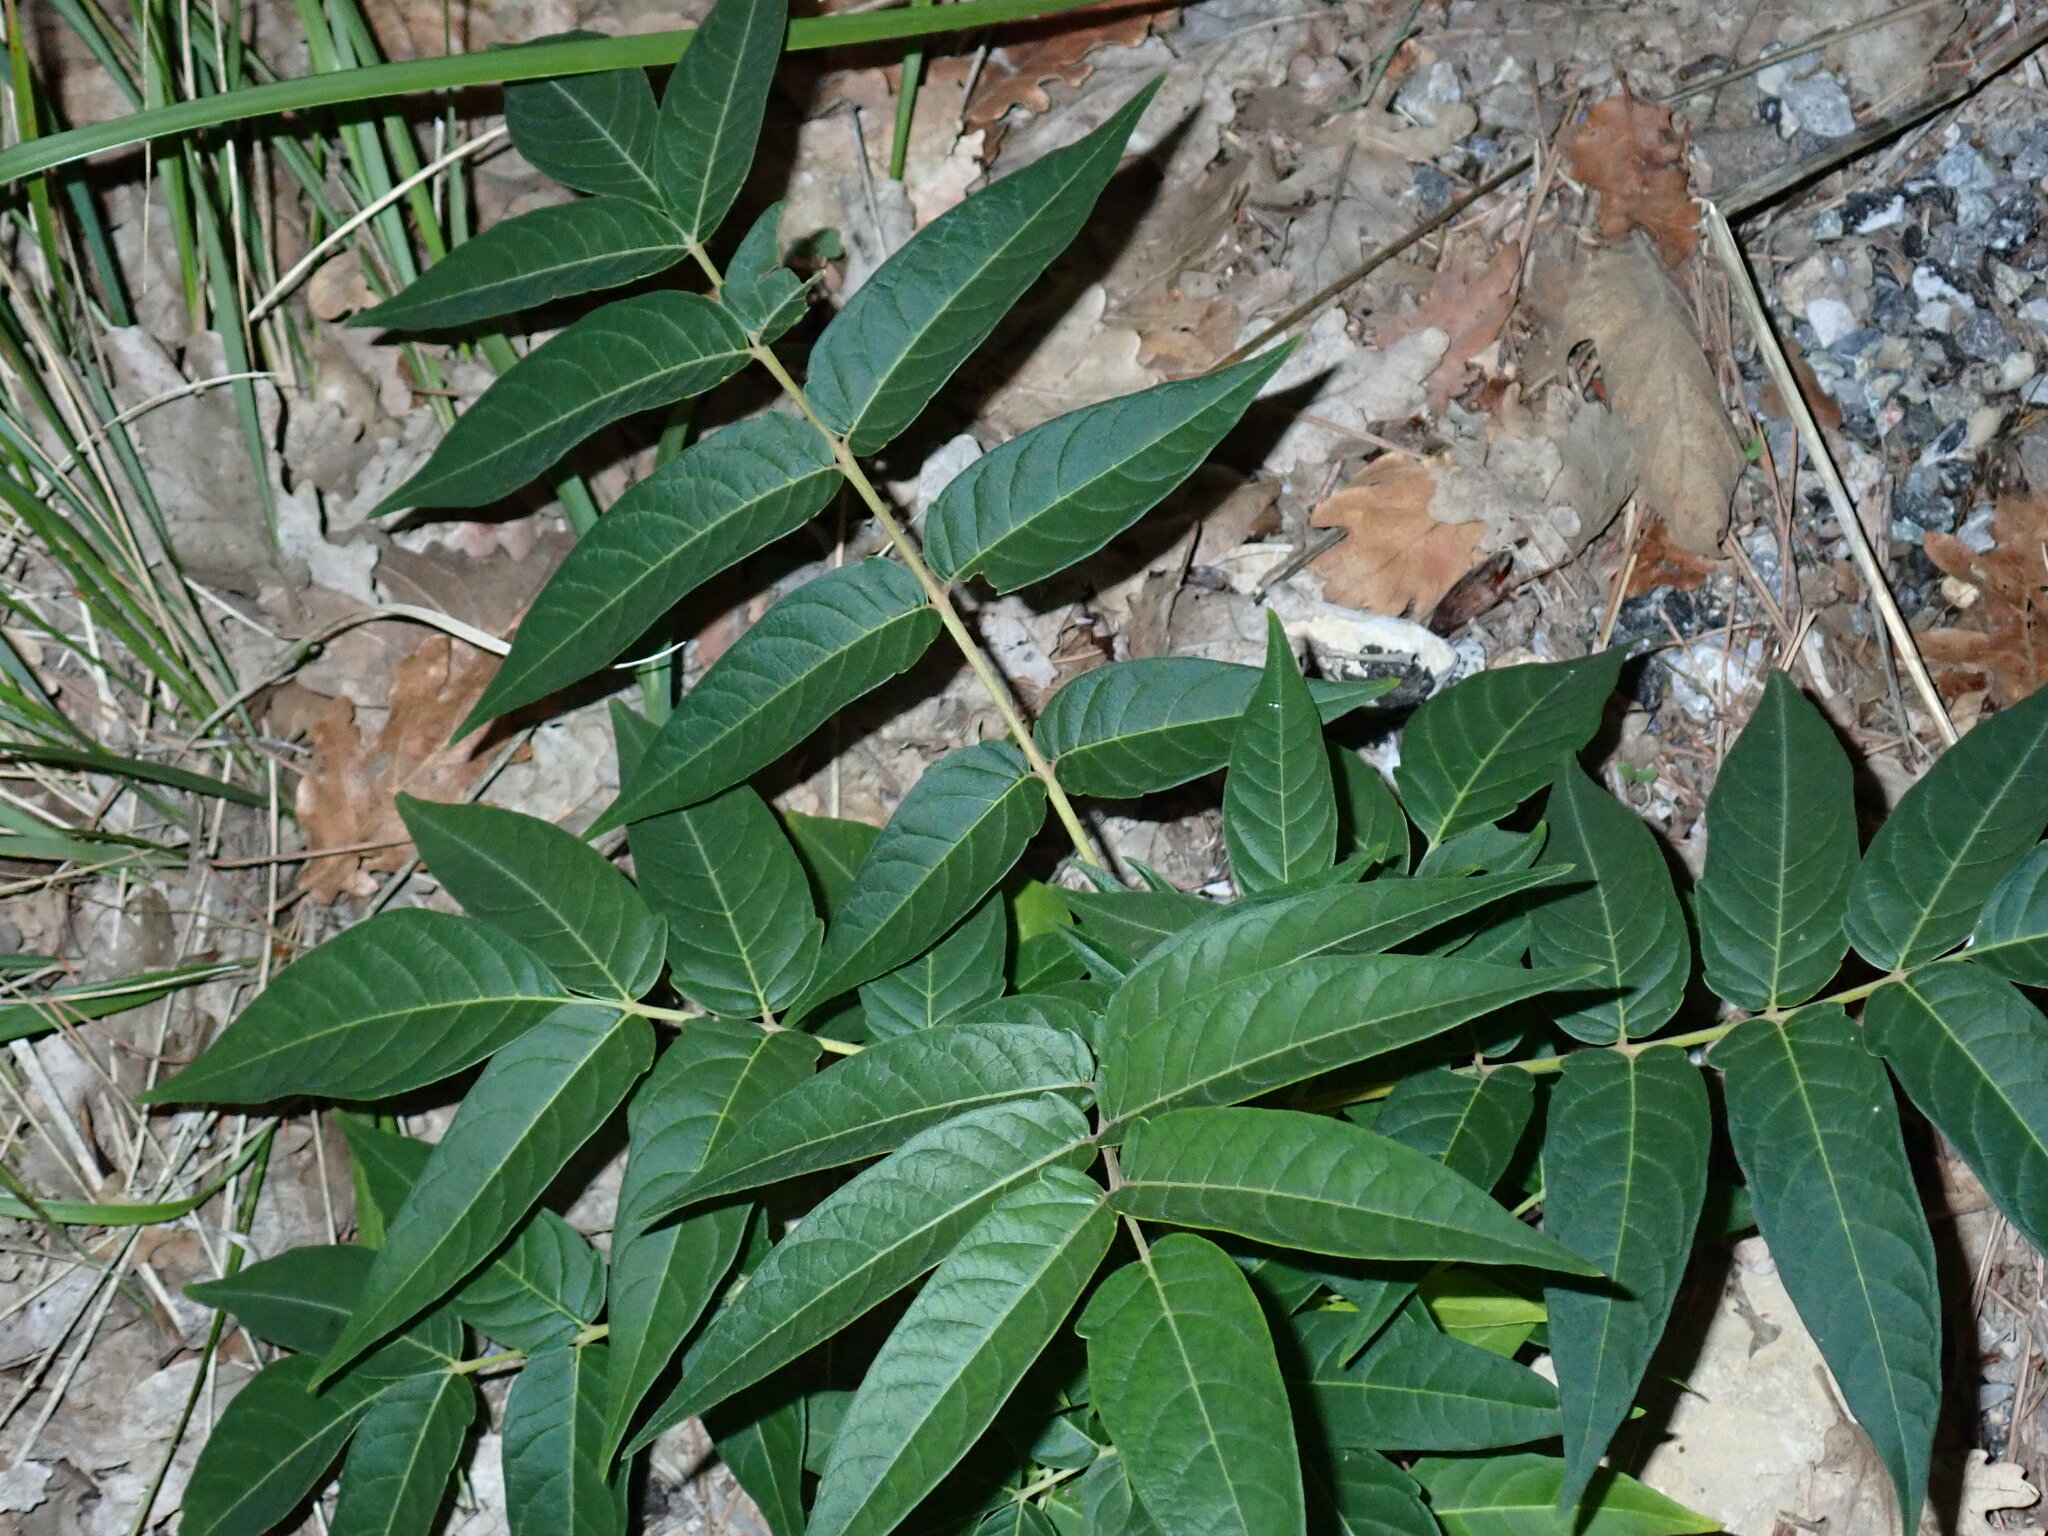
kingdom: Plantae
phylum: Tracheophyta
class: Magnoliopsida
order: Sapindales
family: Simaroubaceae
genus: Ailanthus
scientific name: Ailanthus altissima
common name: Tree-of-heaven
